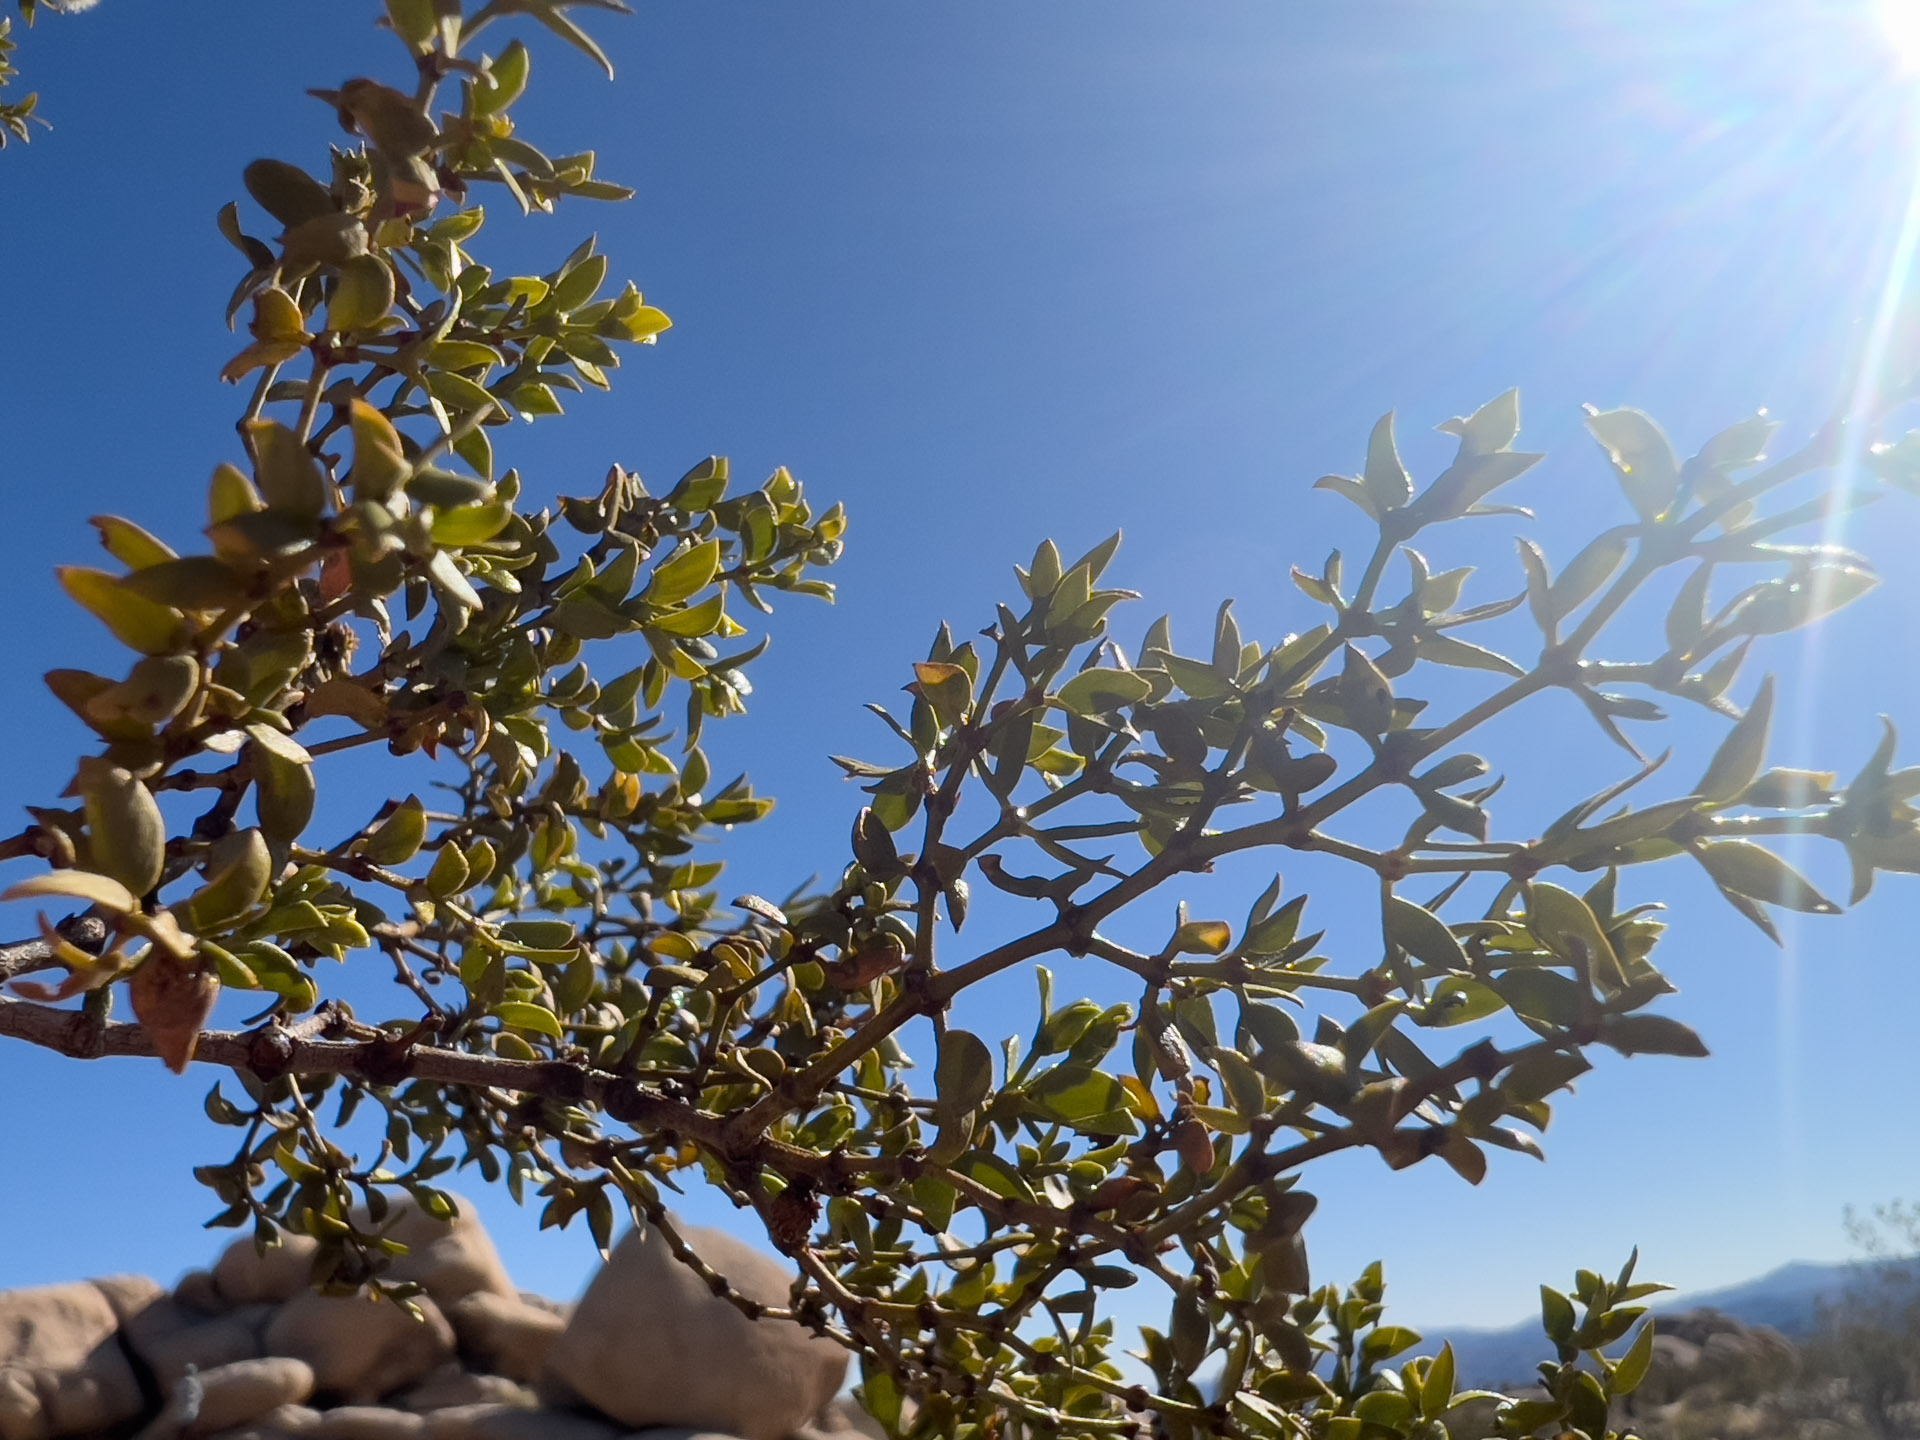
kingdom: Plantae
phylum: Tracheophyta
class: Magnoliopsida
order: Zygophyllales
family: Zygophyllaceae
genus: Larrea
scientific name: Larrea tridentata
